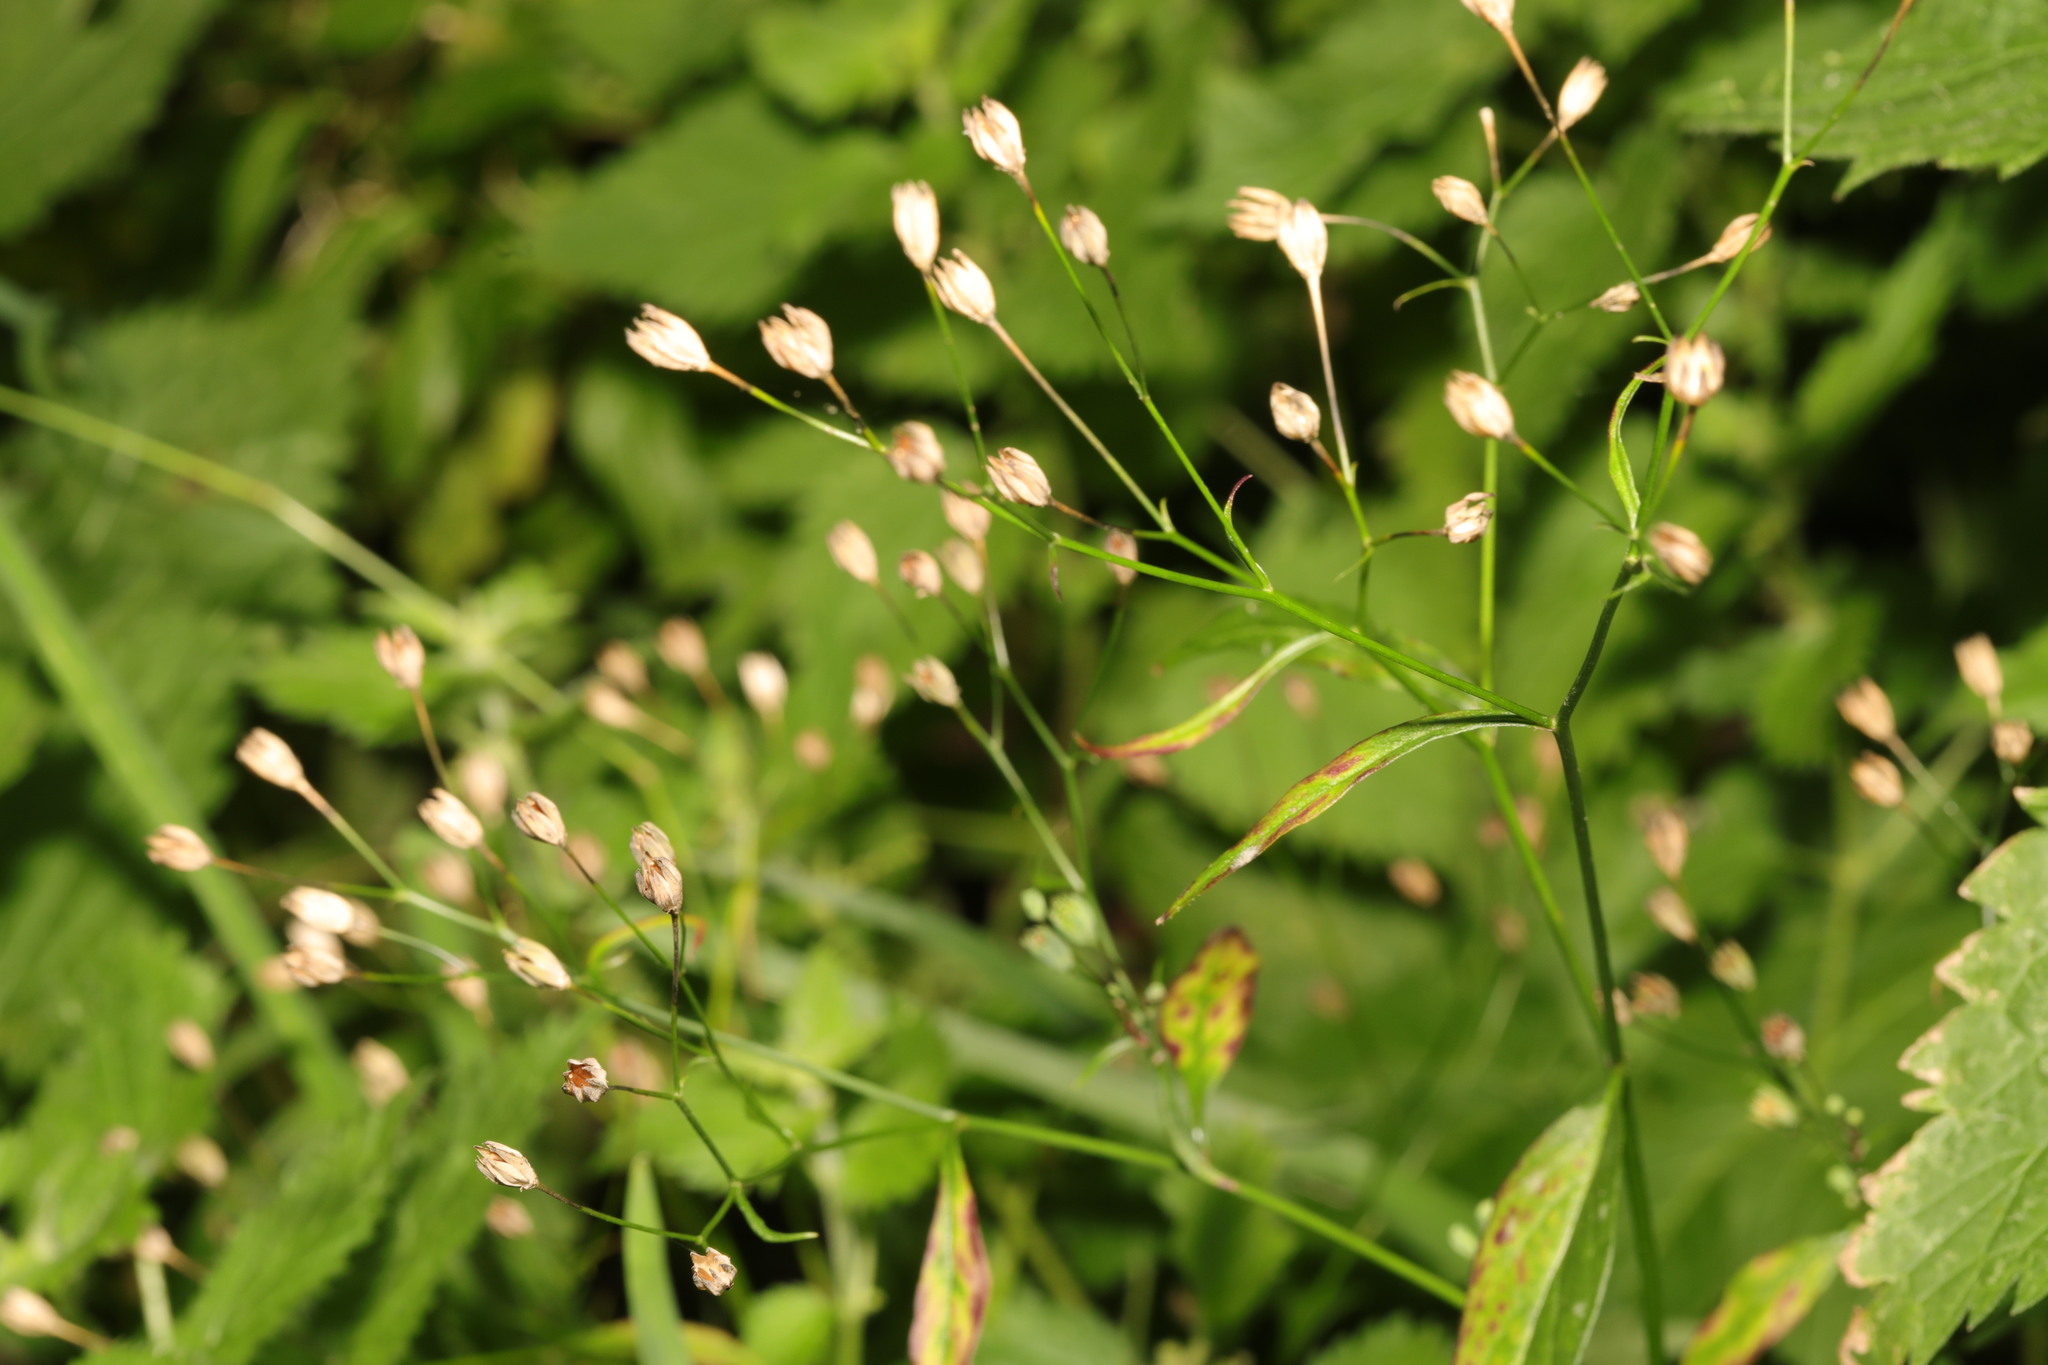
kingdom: Plantae
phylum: Tracheophyta
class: Magnoliopsida
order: Asterales
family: Asteraceae
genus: Lapsana
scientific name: Lapsana communis
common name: Nipplewort
